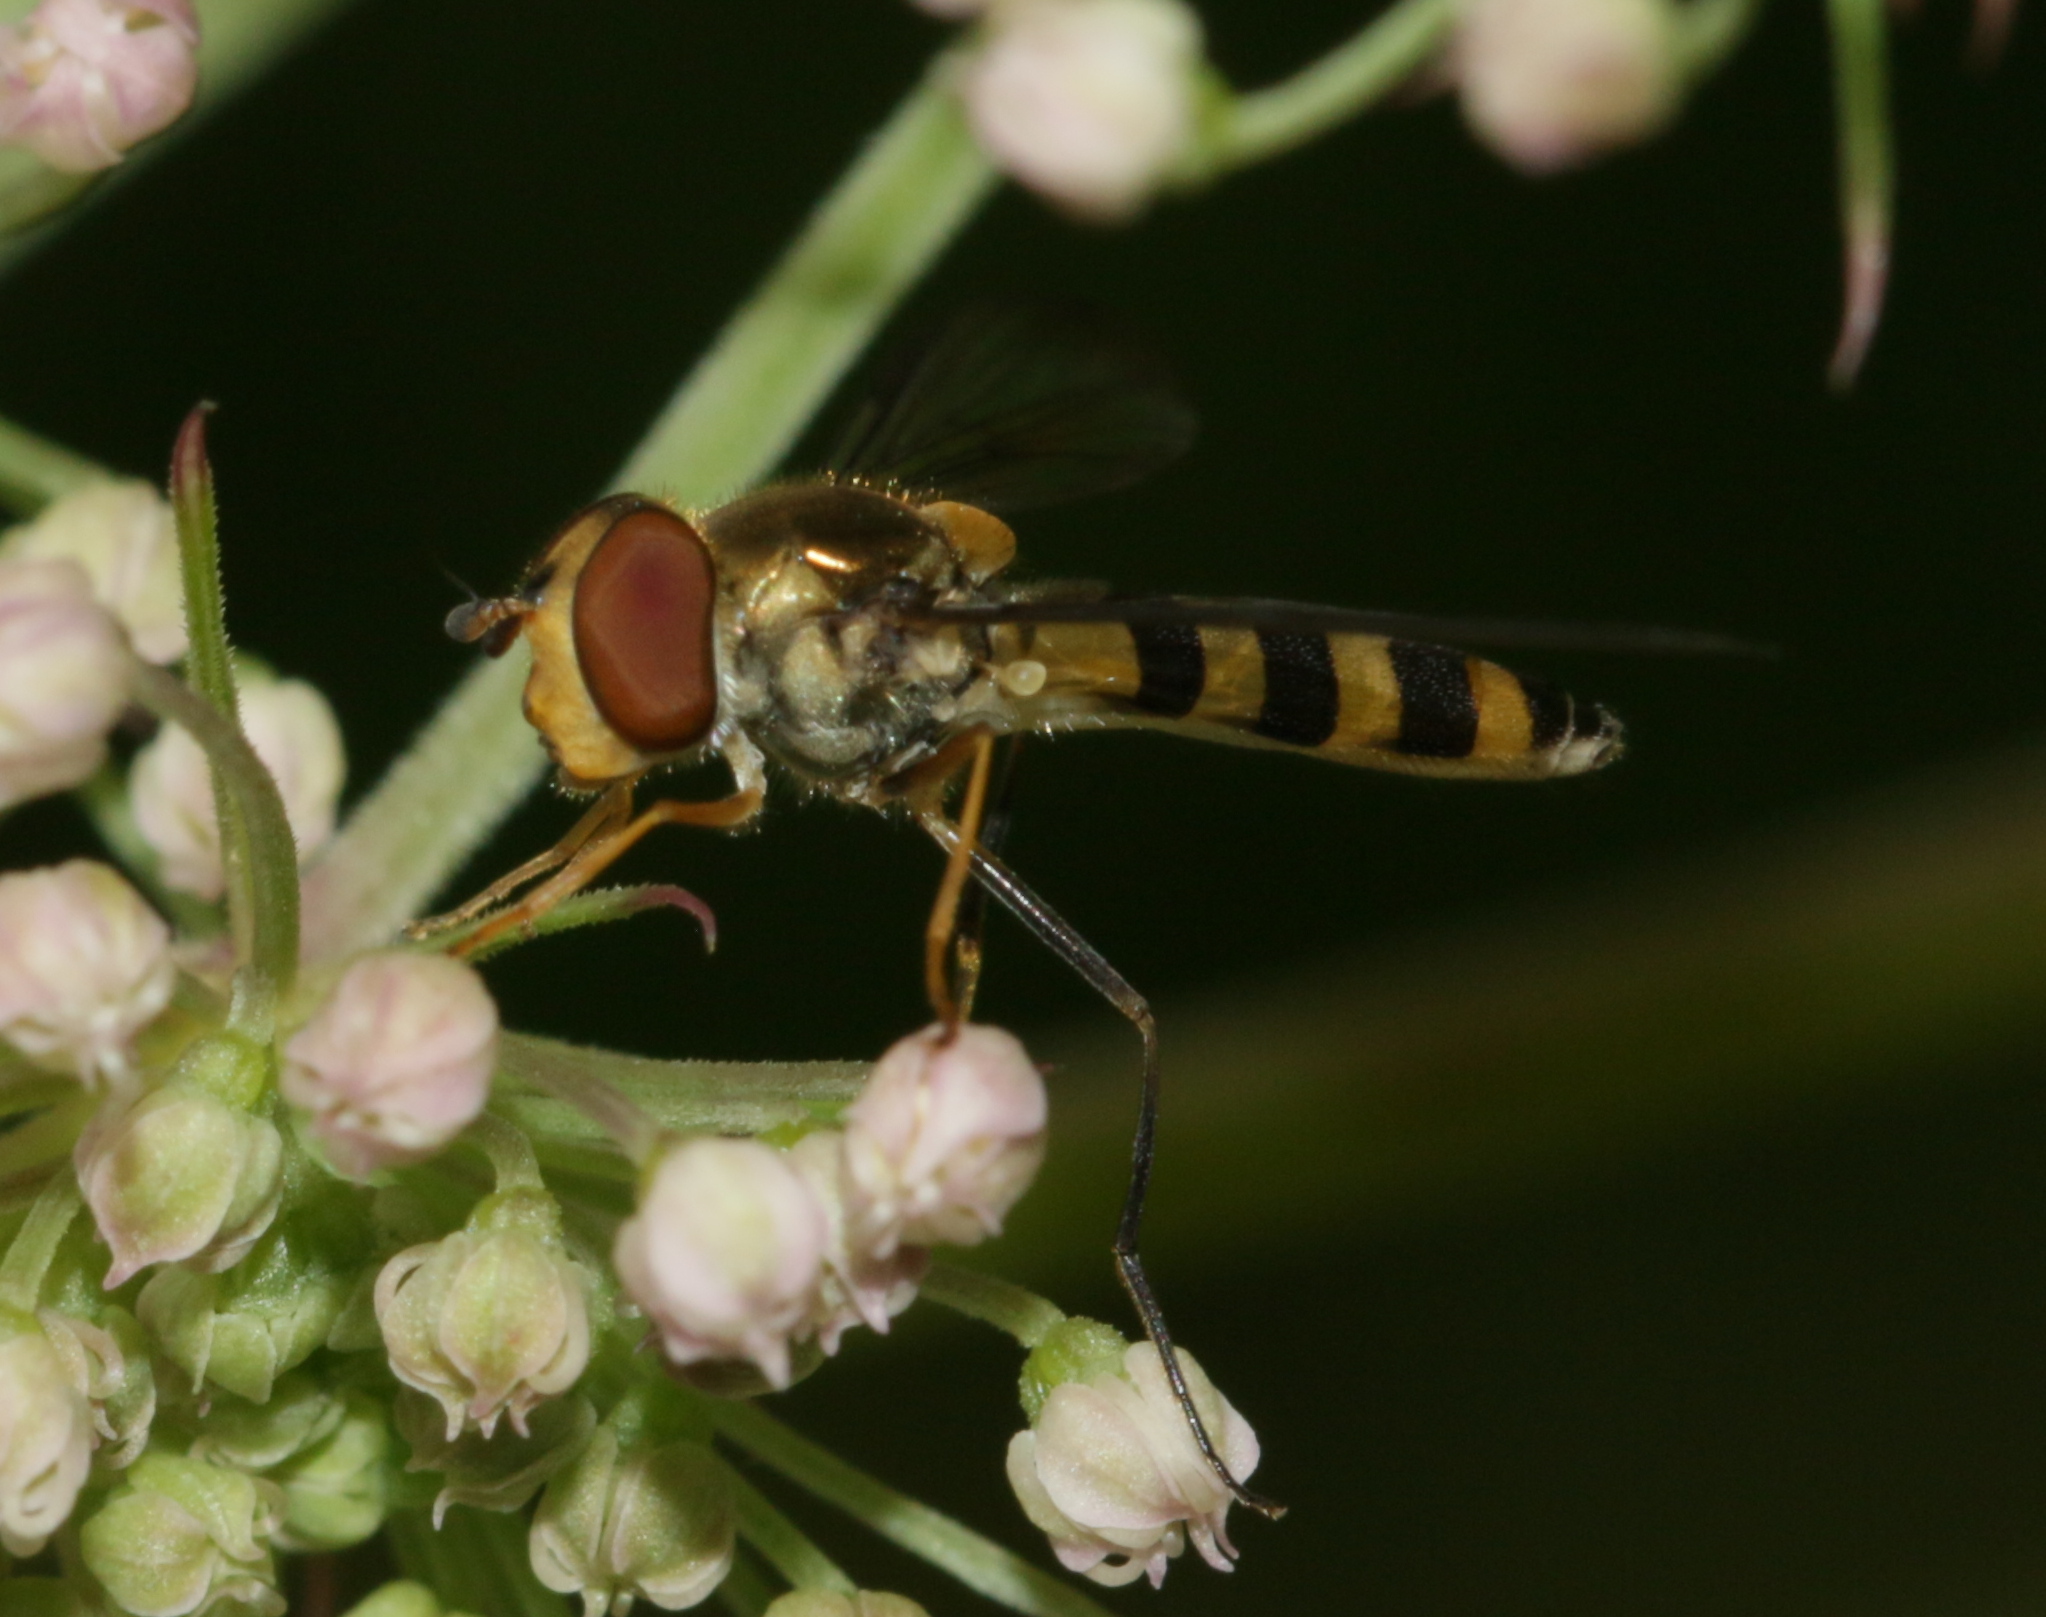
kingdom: Animalia
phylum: Arthropoda
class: Insecta
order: Diptera
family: Syrphidae
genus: Meliscaeva
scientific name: Meliscaeva cinctella
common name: American thintail fly
